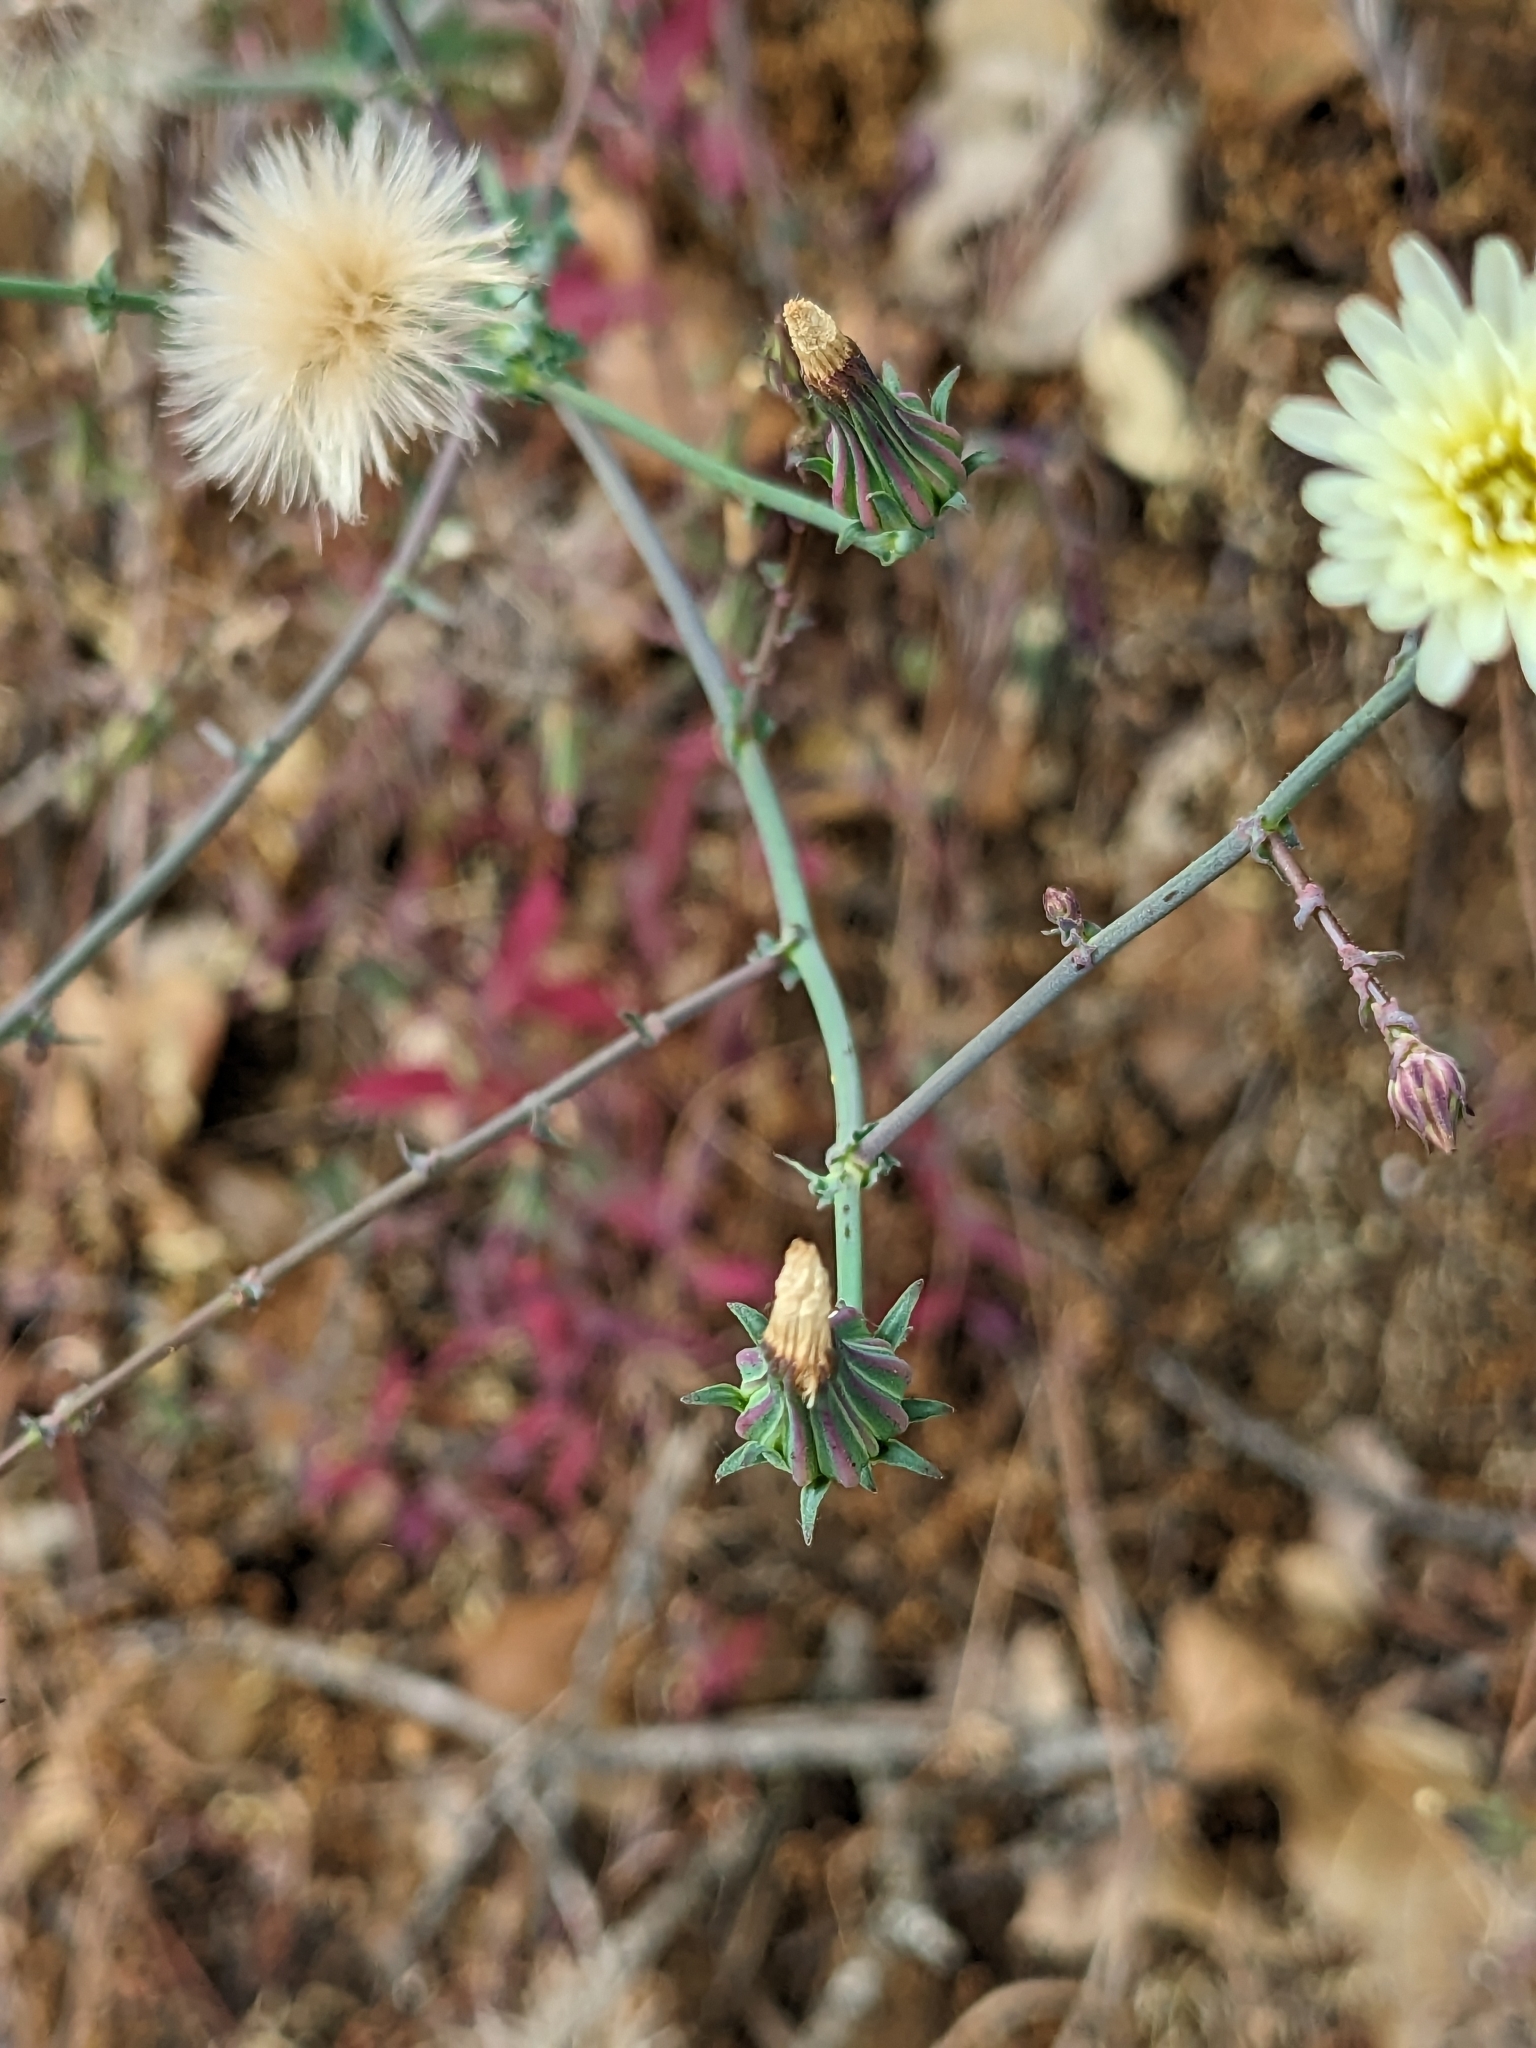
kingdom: Plantae
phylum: Tracheophyta
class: Magnoliopsida
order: Asterales
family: Asteraceae
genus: Rafinesquia
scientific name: Rafinesquia californica
